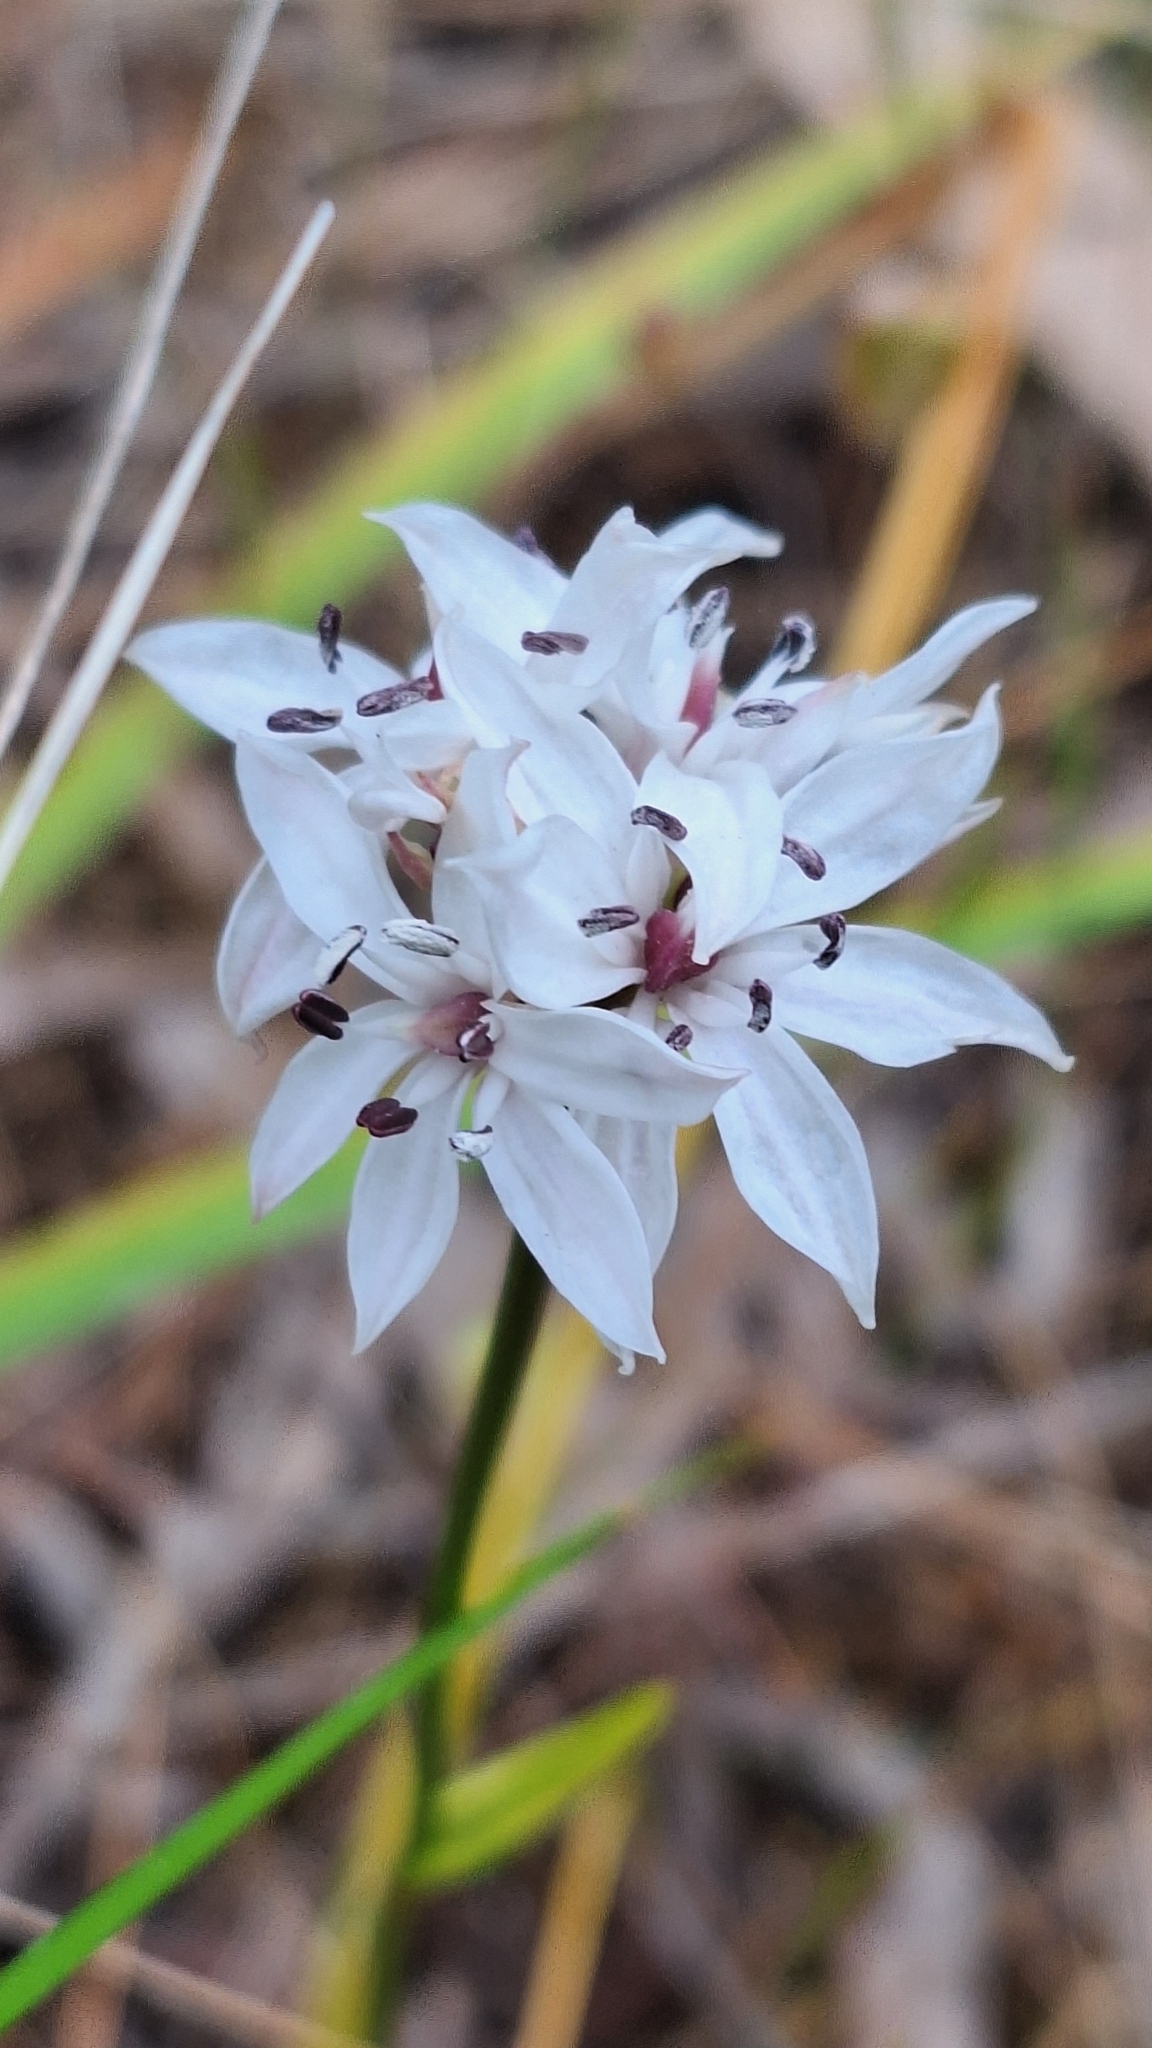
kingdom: Plantae
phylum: Tracheophyta
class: Liliopsida
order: Liliales
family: Colchicaceae
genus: Burchardia
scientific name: Burchardia umbellata
